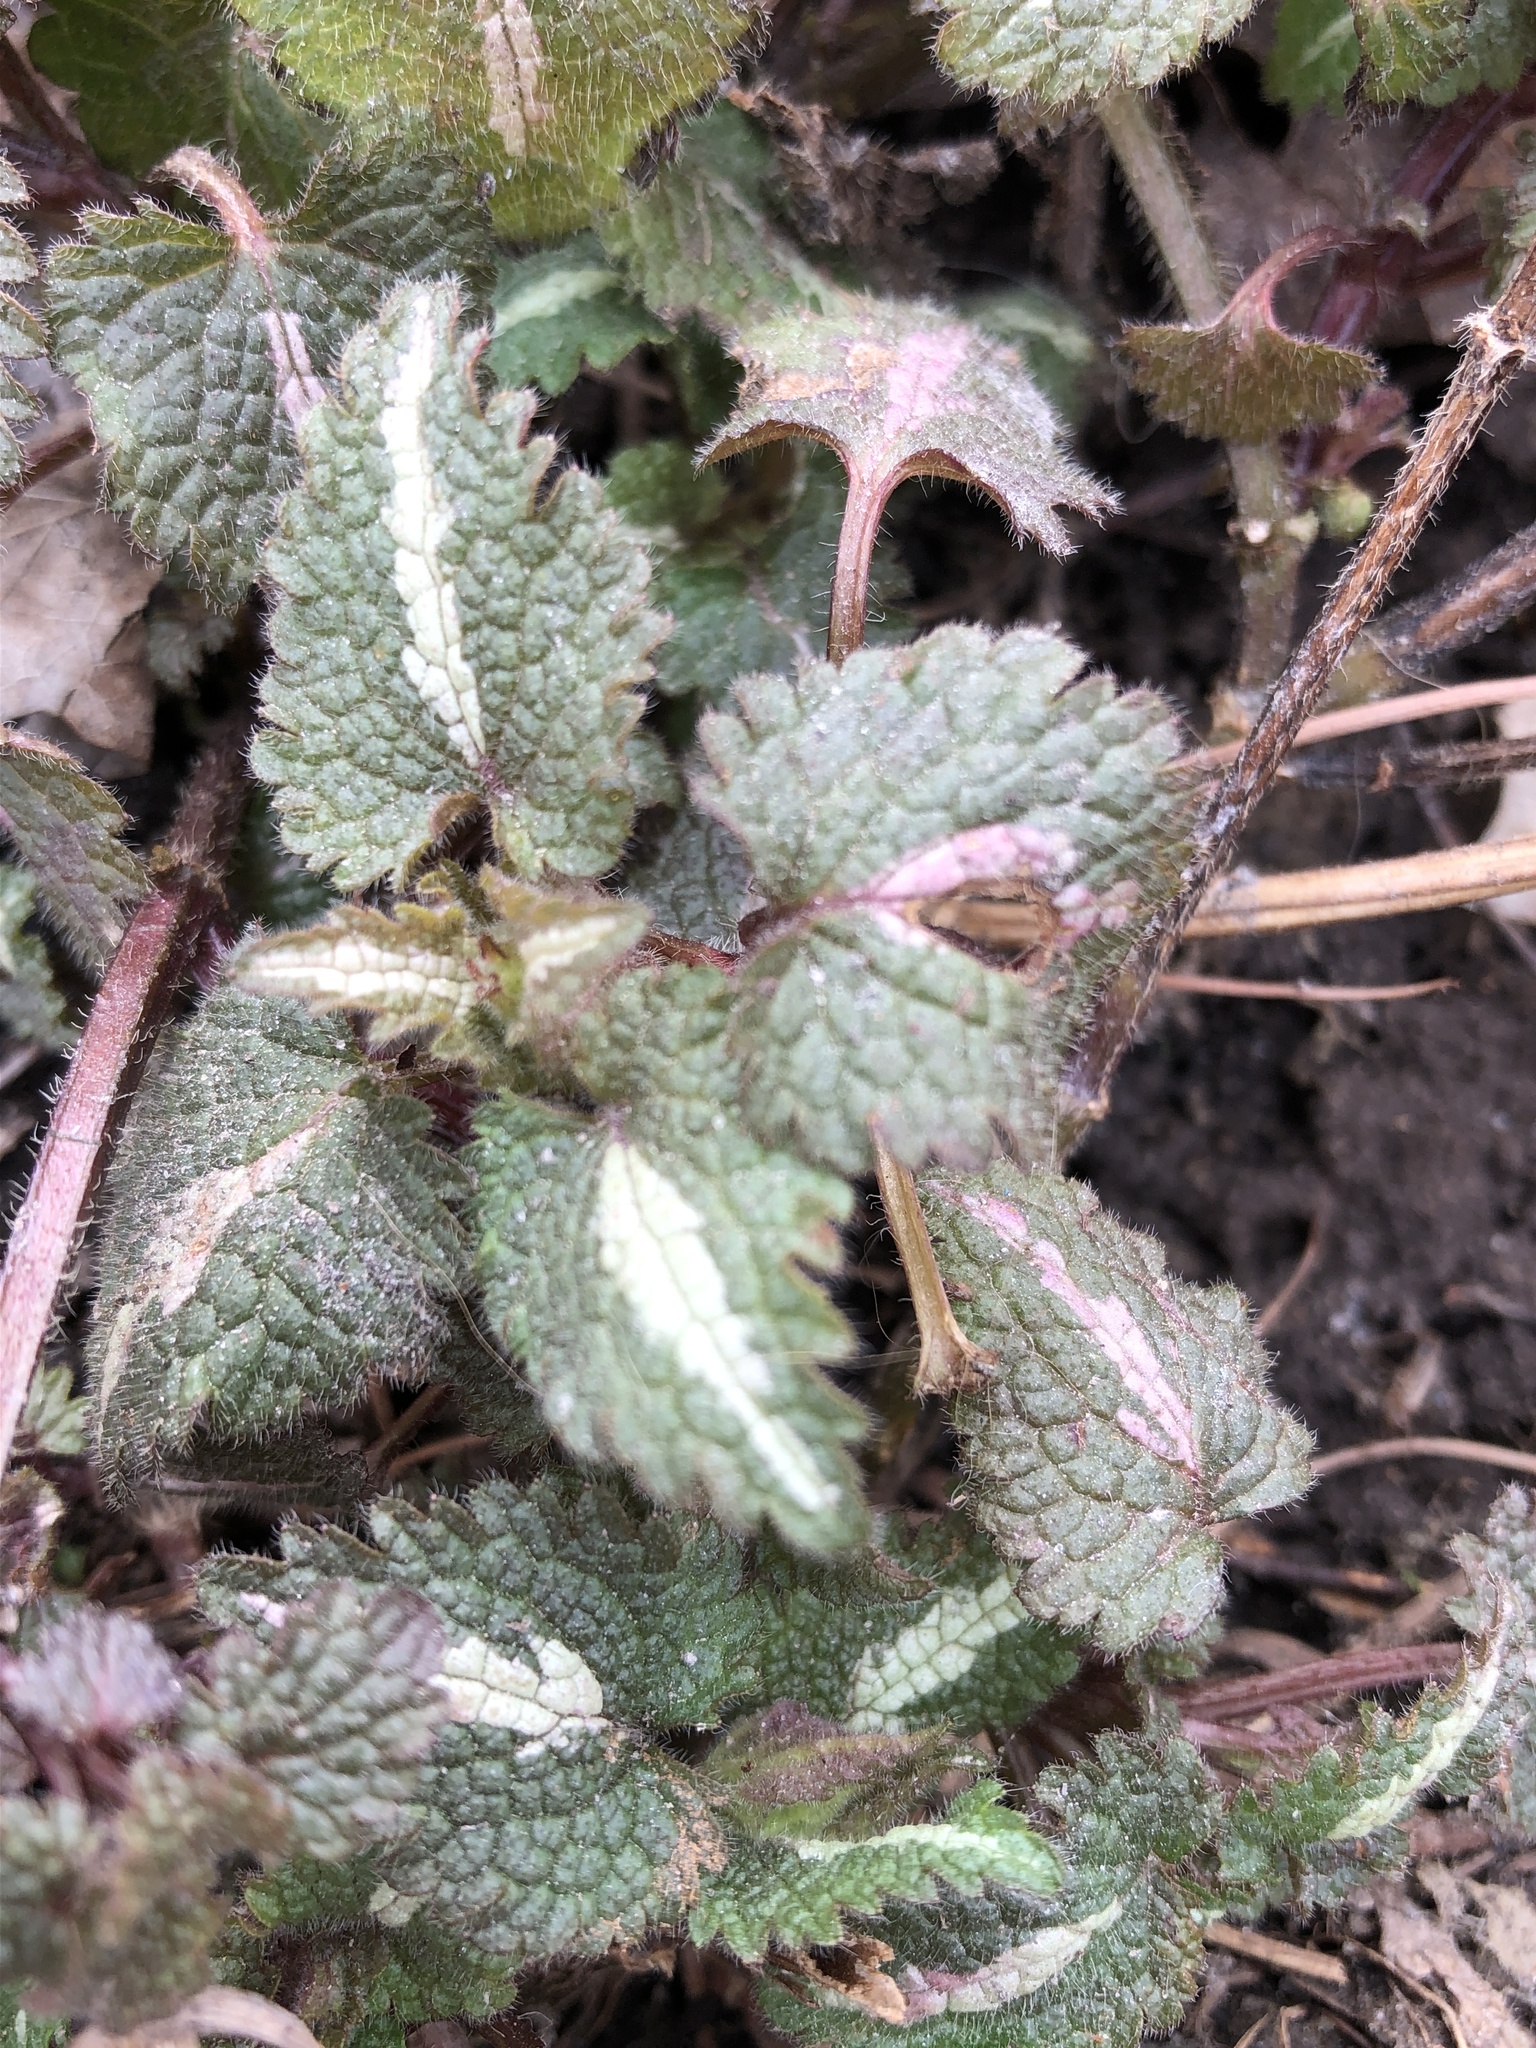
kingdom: Plantae
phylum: Tracheophyta
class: Magnoliopsida
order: Lamiales
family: Lamiaceae
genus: Lamium
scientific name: Lamium maculatum
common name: Spotted dead-nettle
